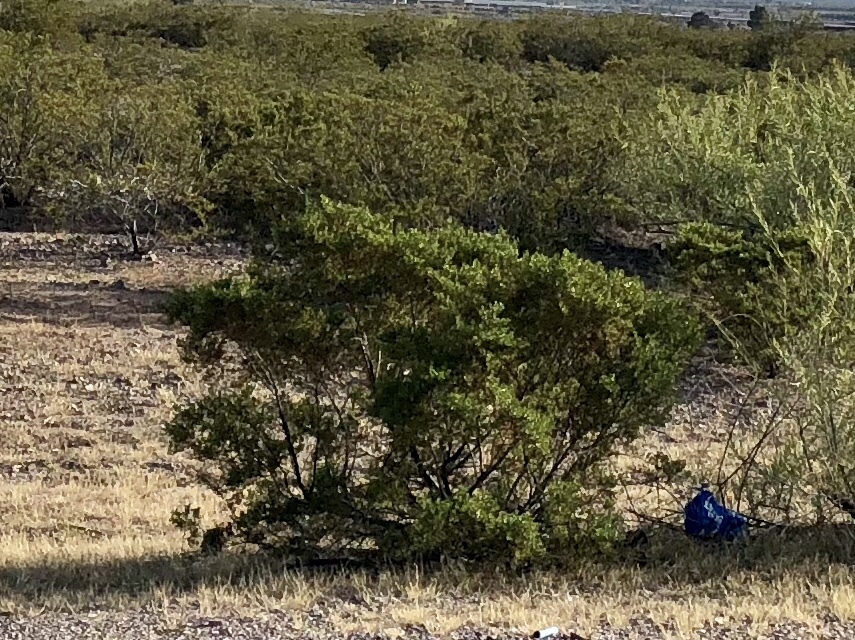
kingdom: Plantae
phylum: Tracheophyta
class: Magnoliopsida
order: Zygophyllales
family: Zygophyllaceae
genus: Larrea
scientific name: Larrea tridentata
